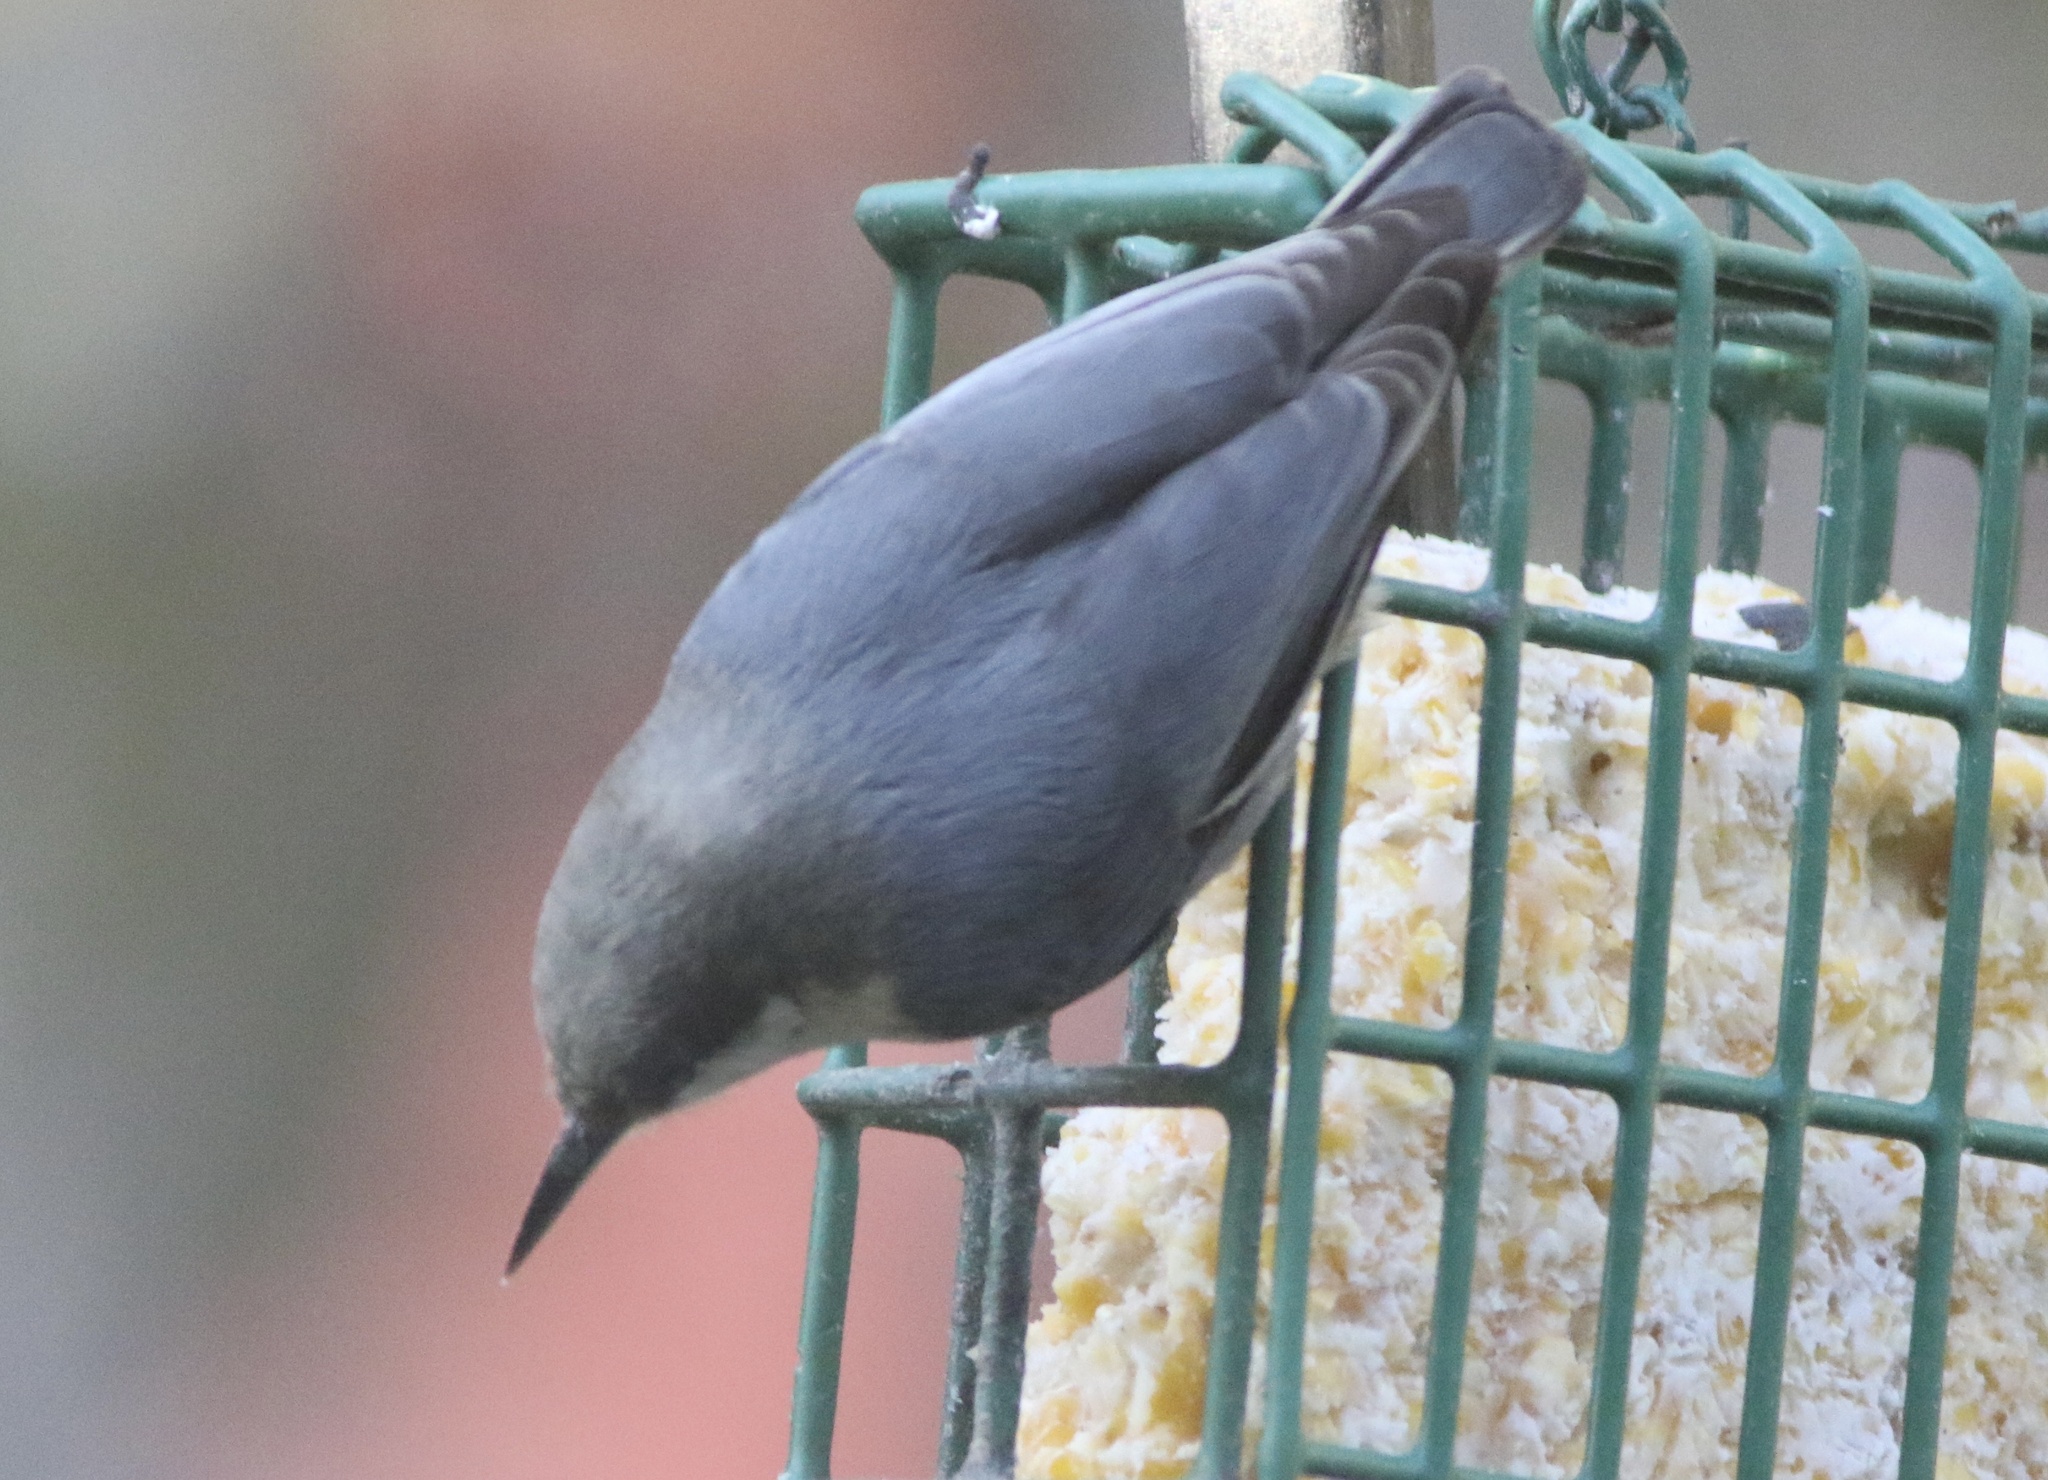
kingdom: Animalia
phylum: Chordata
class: Aves
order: Passeriformes
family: Sittidae
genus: Sitta
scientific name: Sitta pygmaea
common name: Pygmy nuthatch
